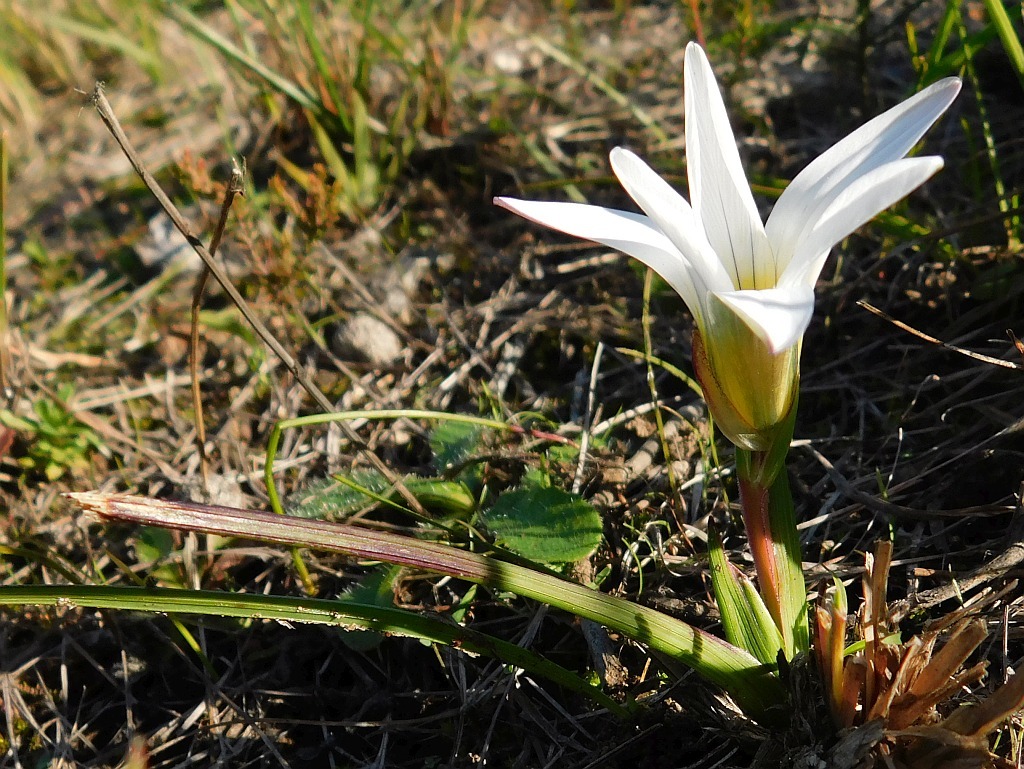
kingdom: Plantae
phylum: Tracheophyta
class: Liliopsida
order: Asparagales
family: Iridaceae
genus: Romulea
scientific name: Romulea flava
